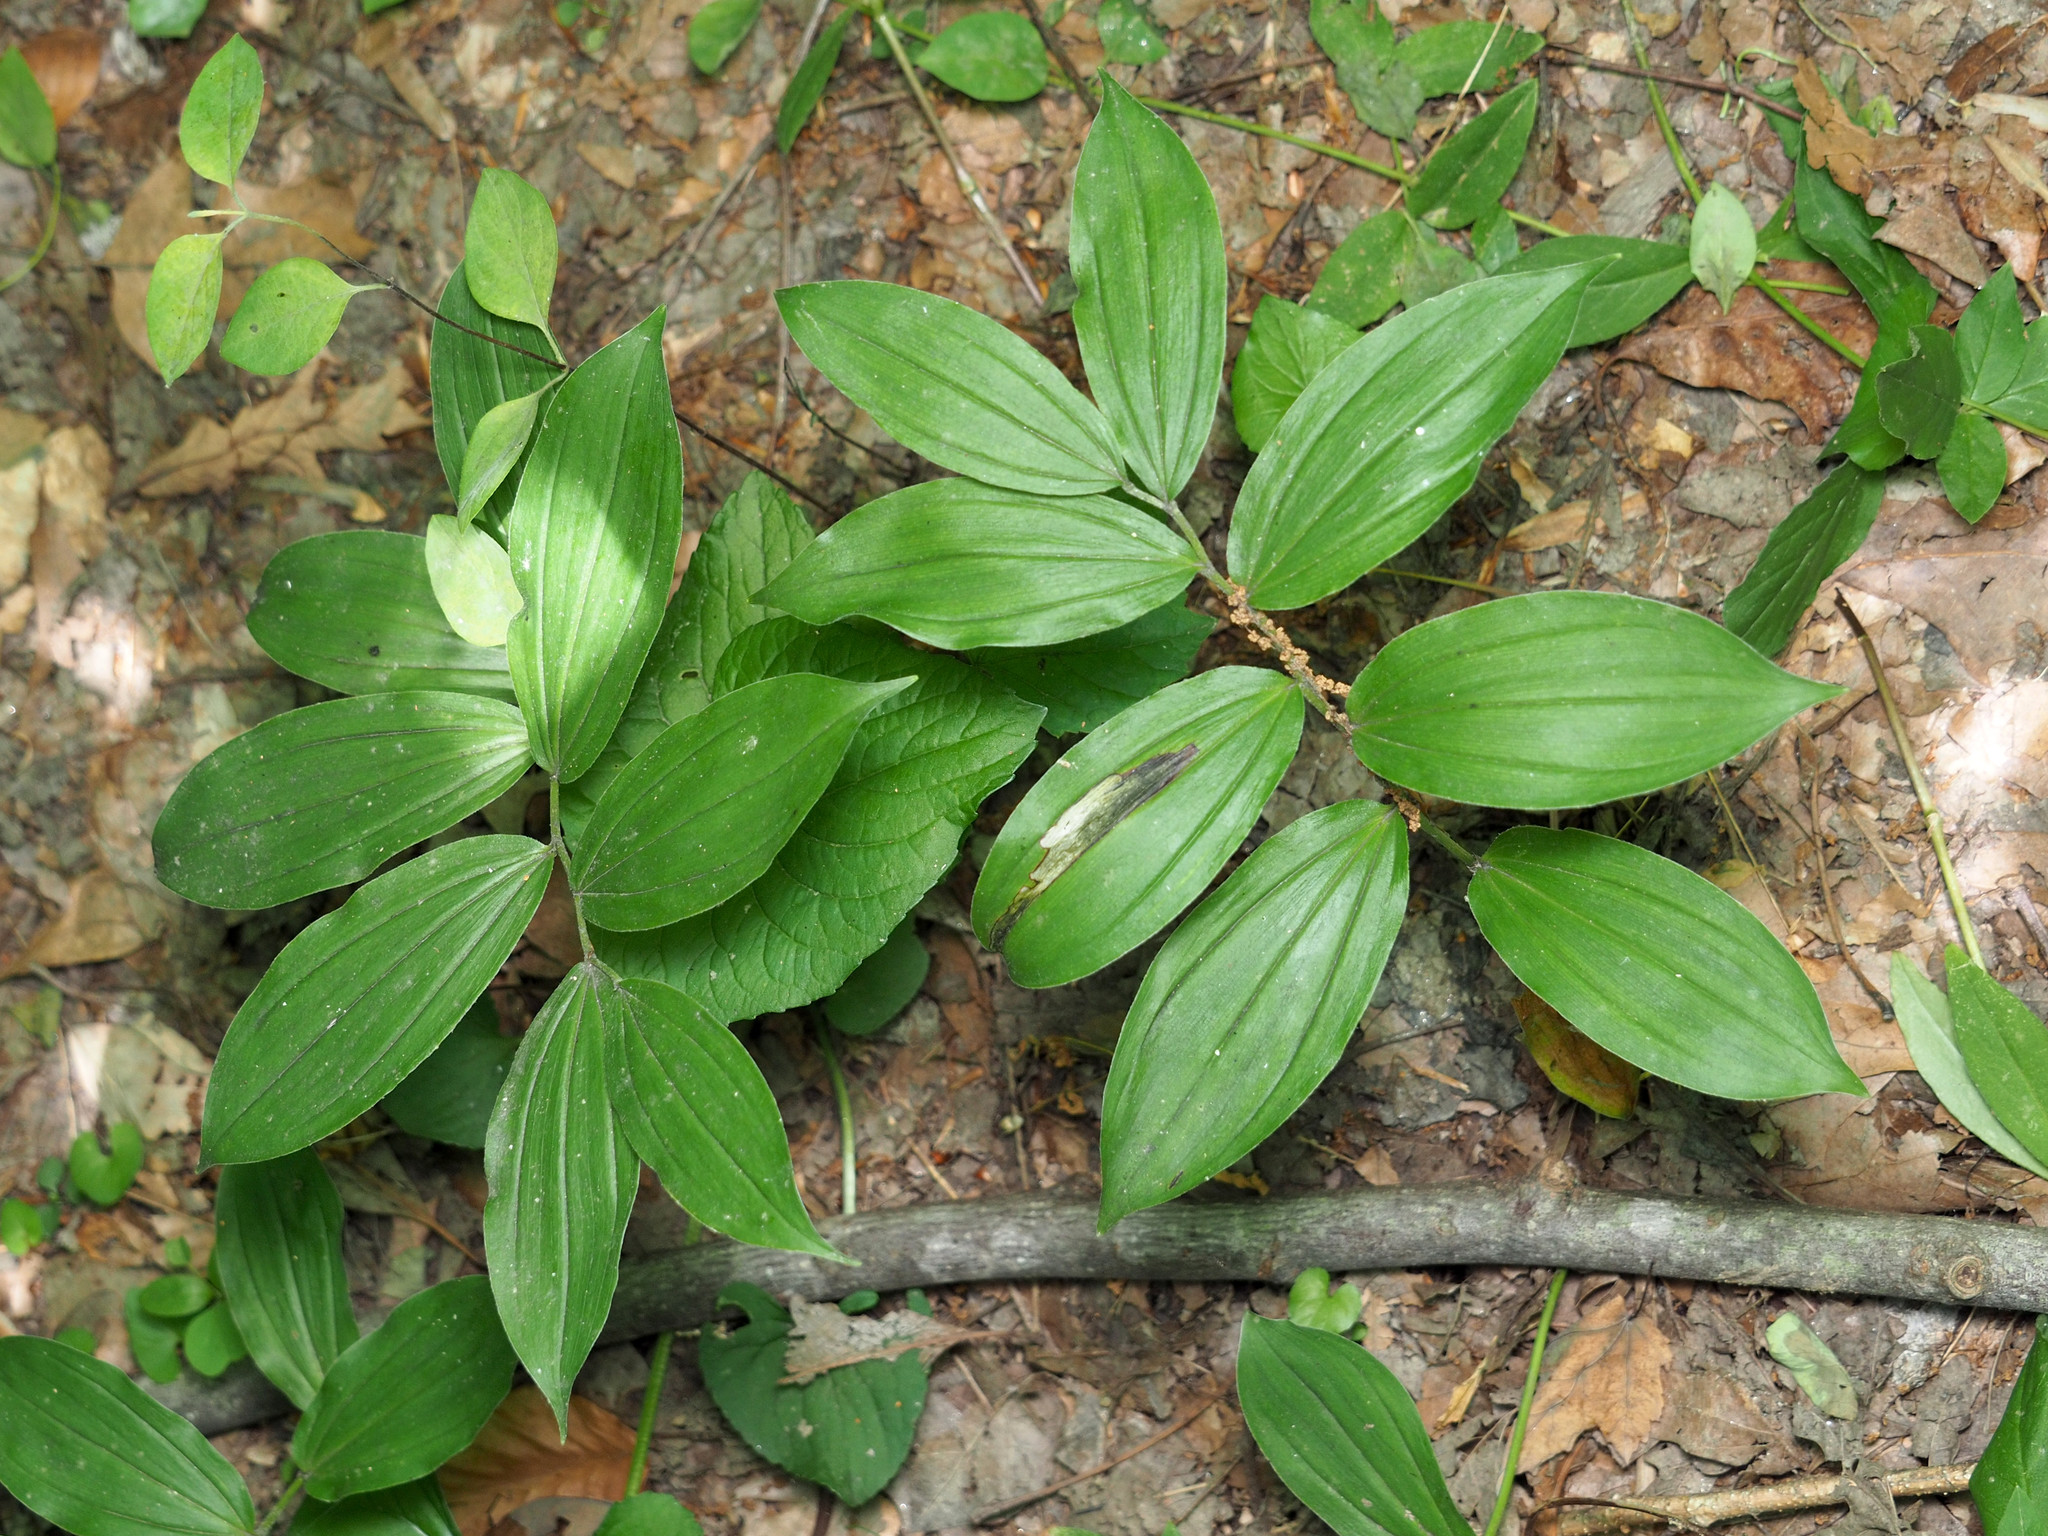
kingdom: Plantae
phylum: Tracheophyta
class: Liliopsida
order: Asparagales
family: Asparagaceae
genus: Maianthemum
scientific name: Maianthemum racemosum
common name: False spikenard
